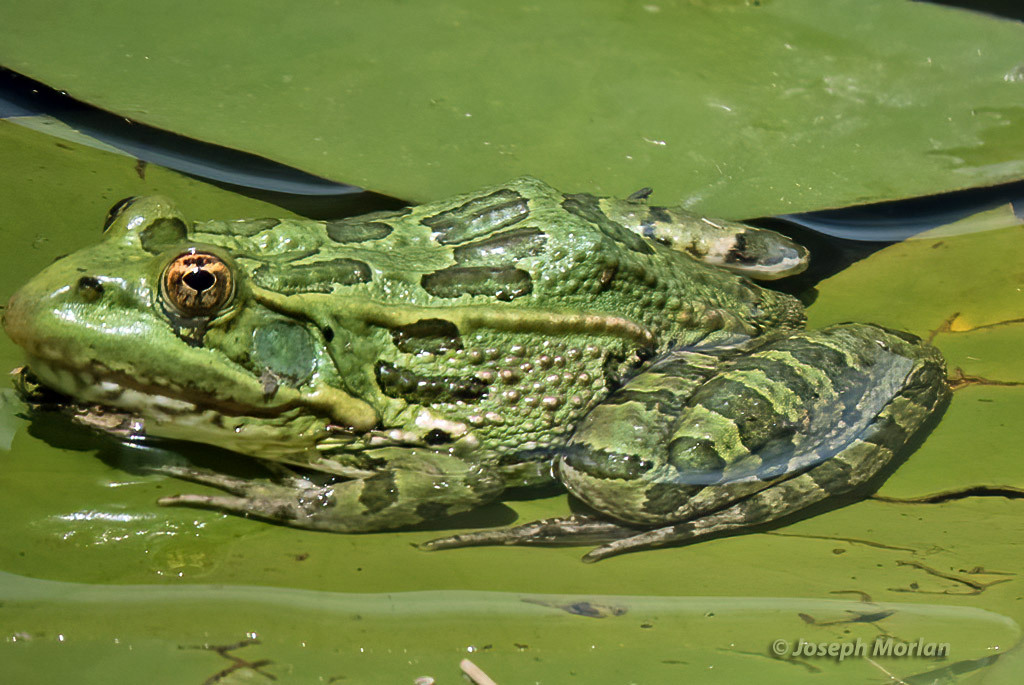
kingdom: Animalia
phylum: Chordata
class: Amphibia
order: Anura
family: Ranidae
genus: Lithobates
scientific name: Lithobates chiricahuensis
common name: Chiricahua leopard frog
